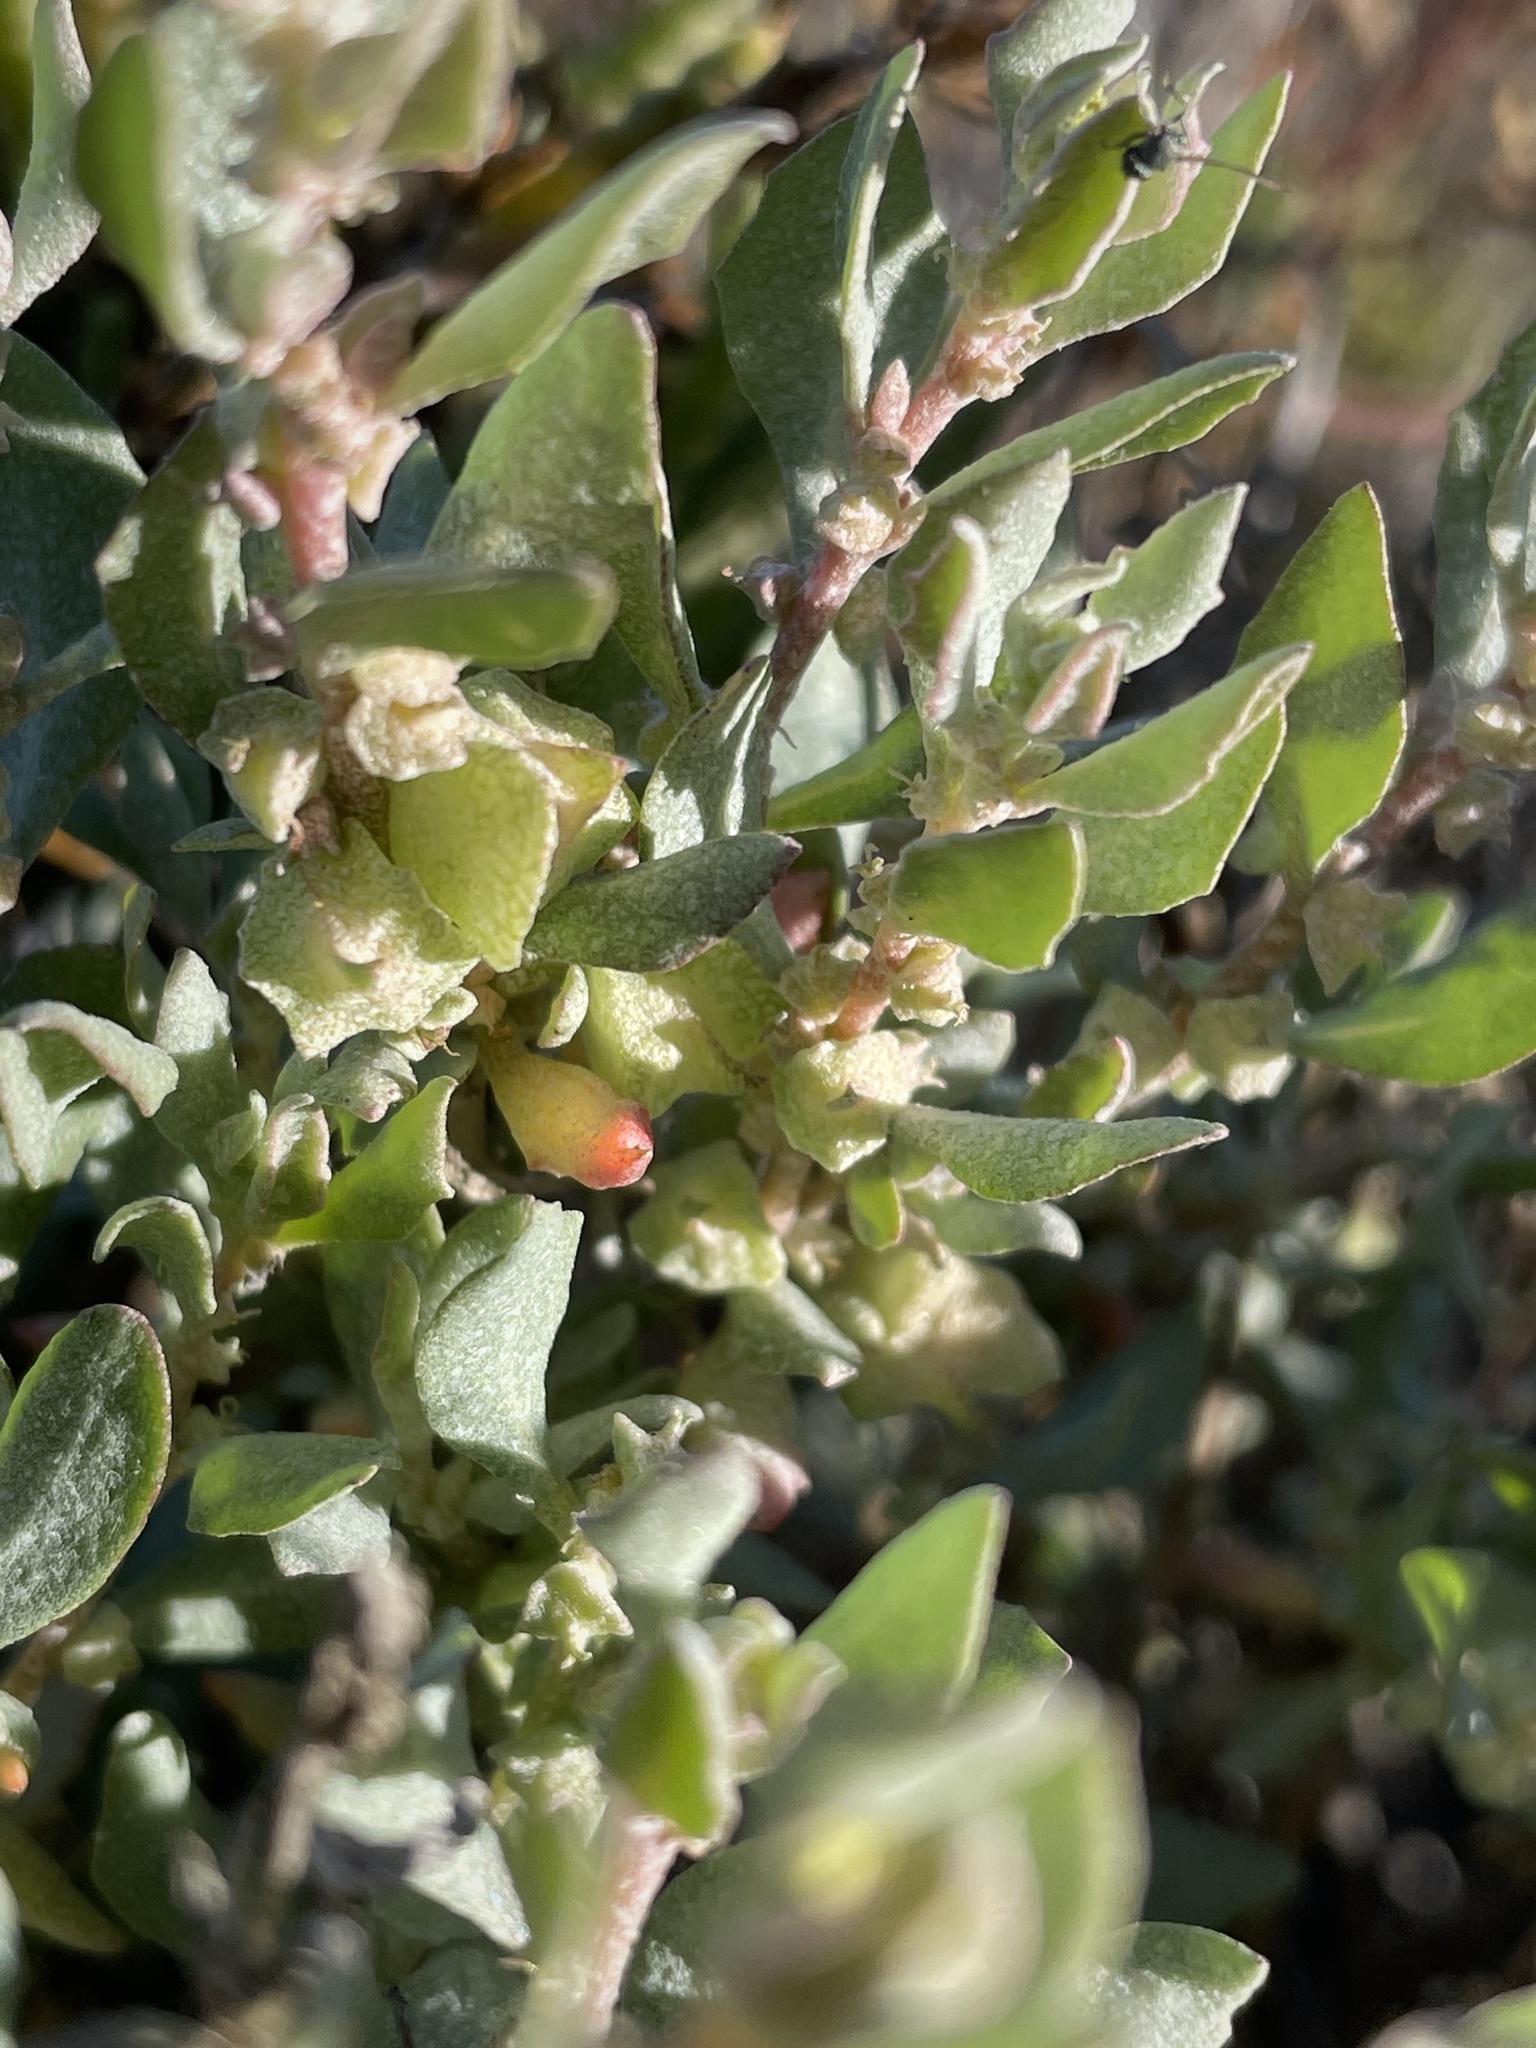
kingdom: Plantae
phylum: Tracheophyta
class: Magnoliopsida
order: Caryophyllales
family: Amaranthaceae
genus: Atriplex
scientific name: Atriplex lindleyi
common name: Lindley's saltbush
